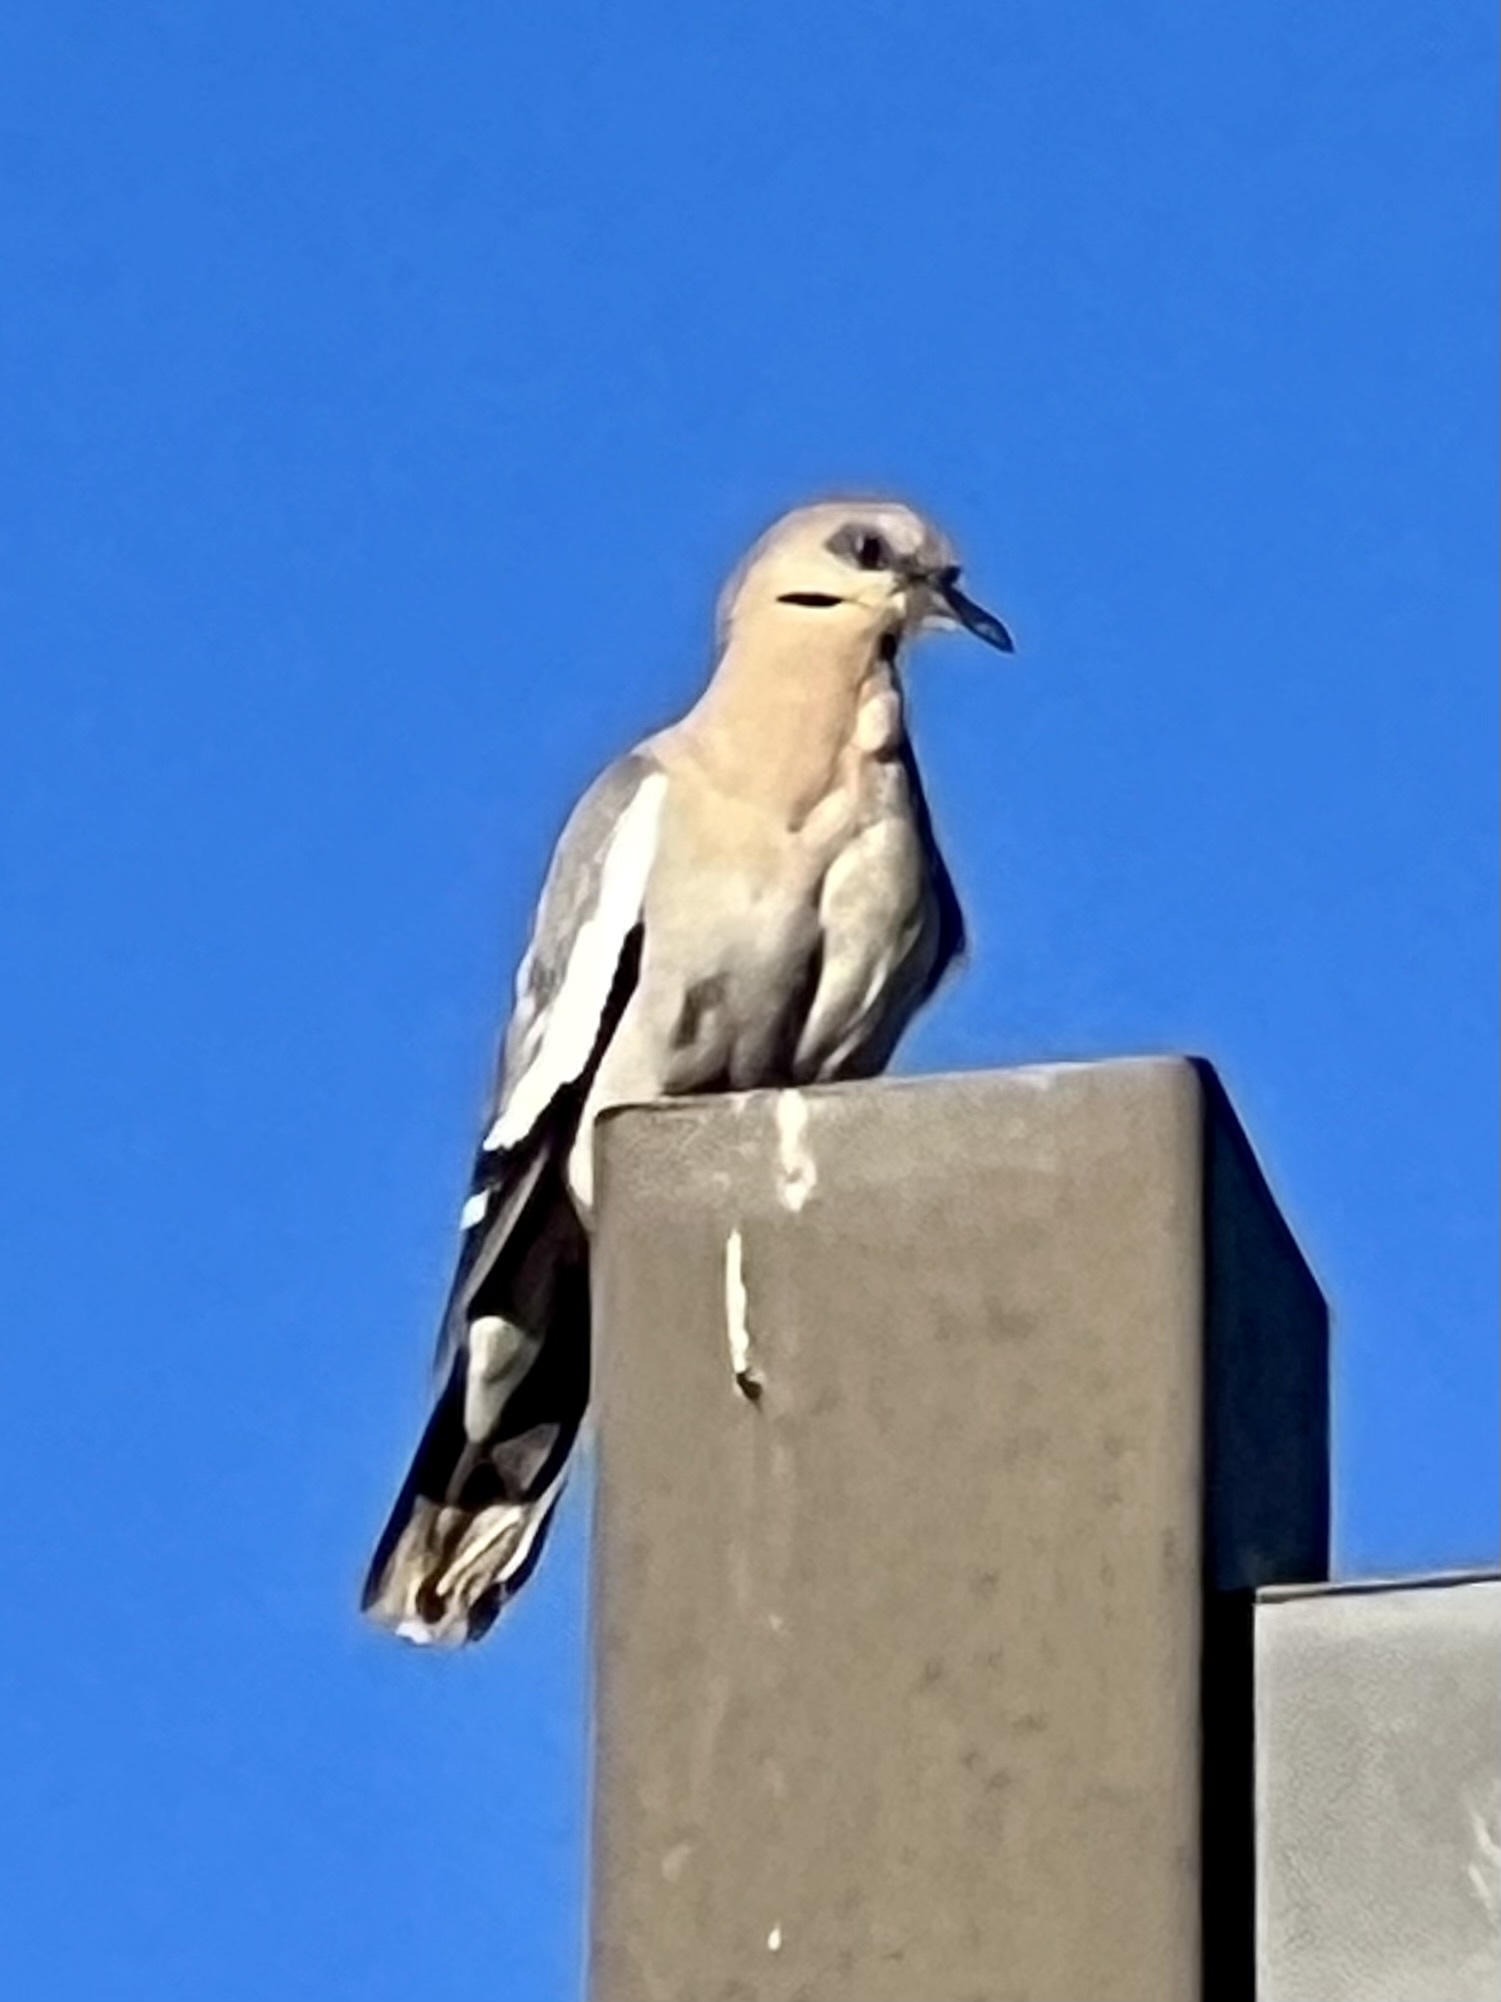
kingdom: Animalia
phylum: Chordata
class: Aves
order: Columbiformes
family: Columbidae
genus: Zenaida
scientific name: Zenaida asiatica
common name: White-winged dove
